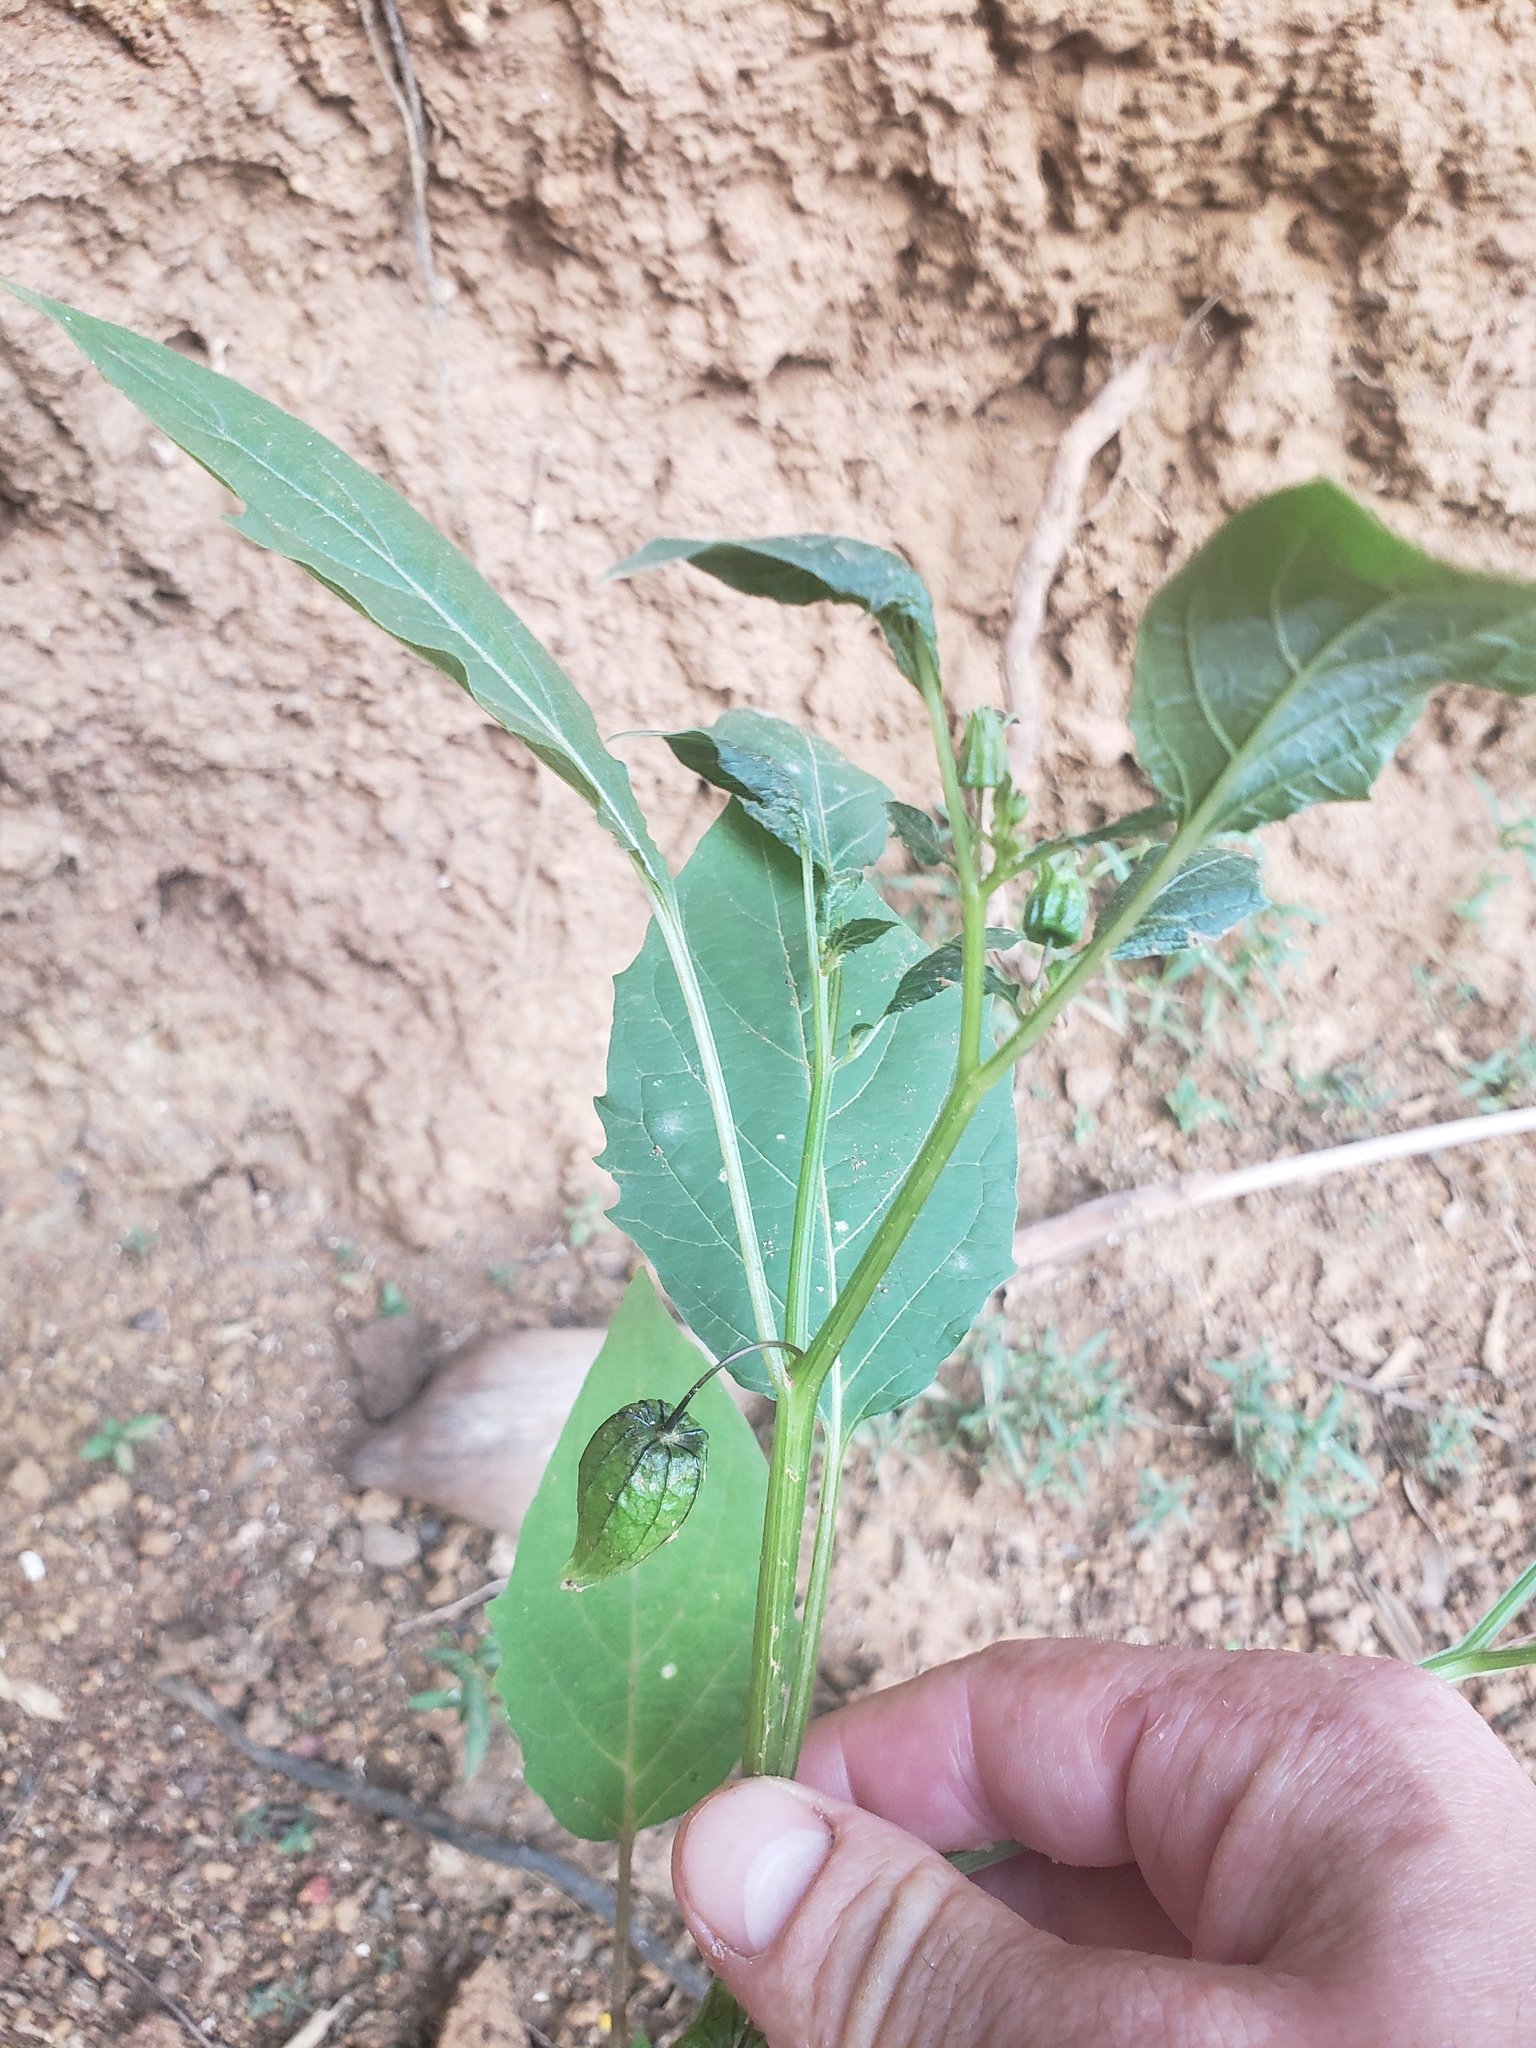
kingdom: Plantae
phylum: Tracheophyta
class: Magnoliopsida
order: Solanales
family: Solanaceae
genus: Physalis
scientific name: Physalis angulata
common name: Angular winter-cherry
